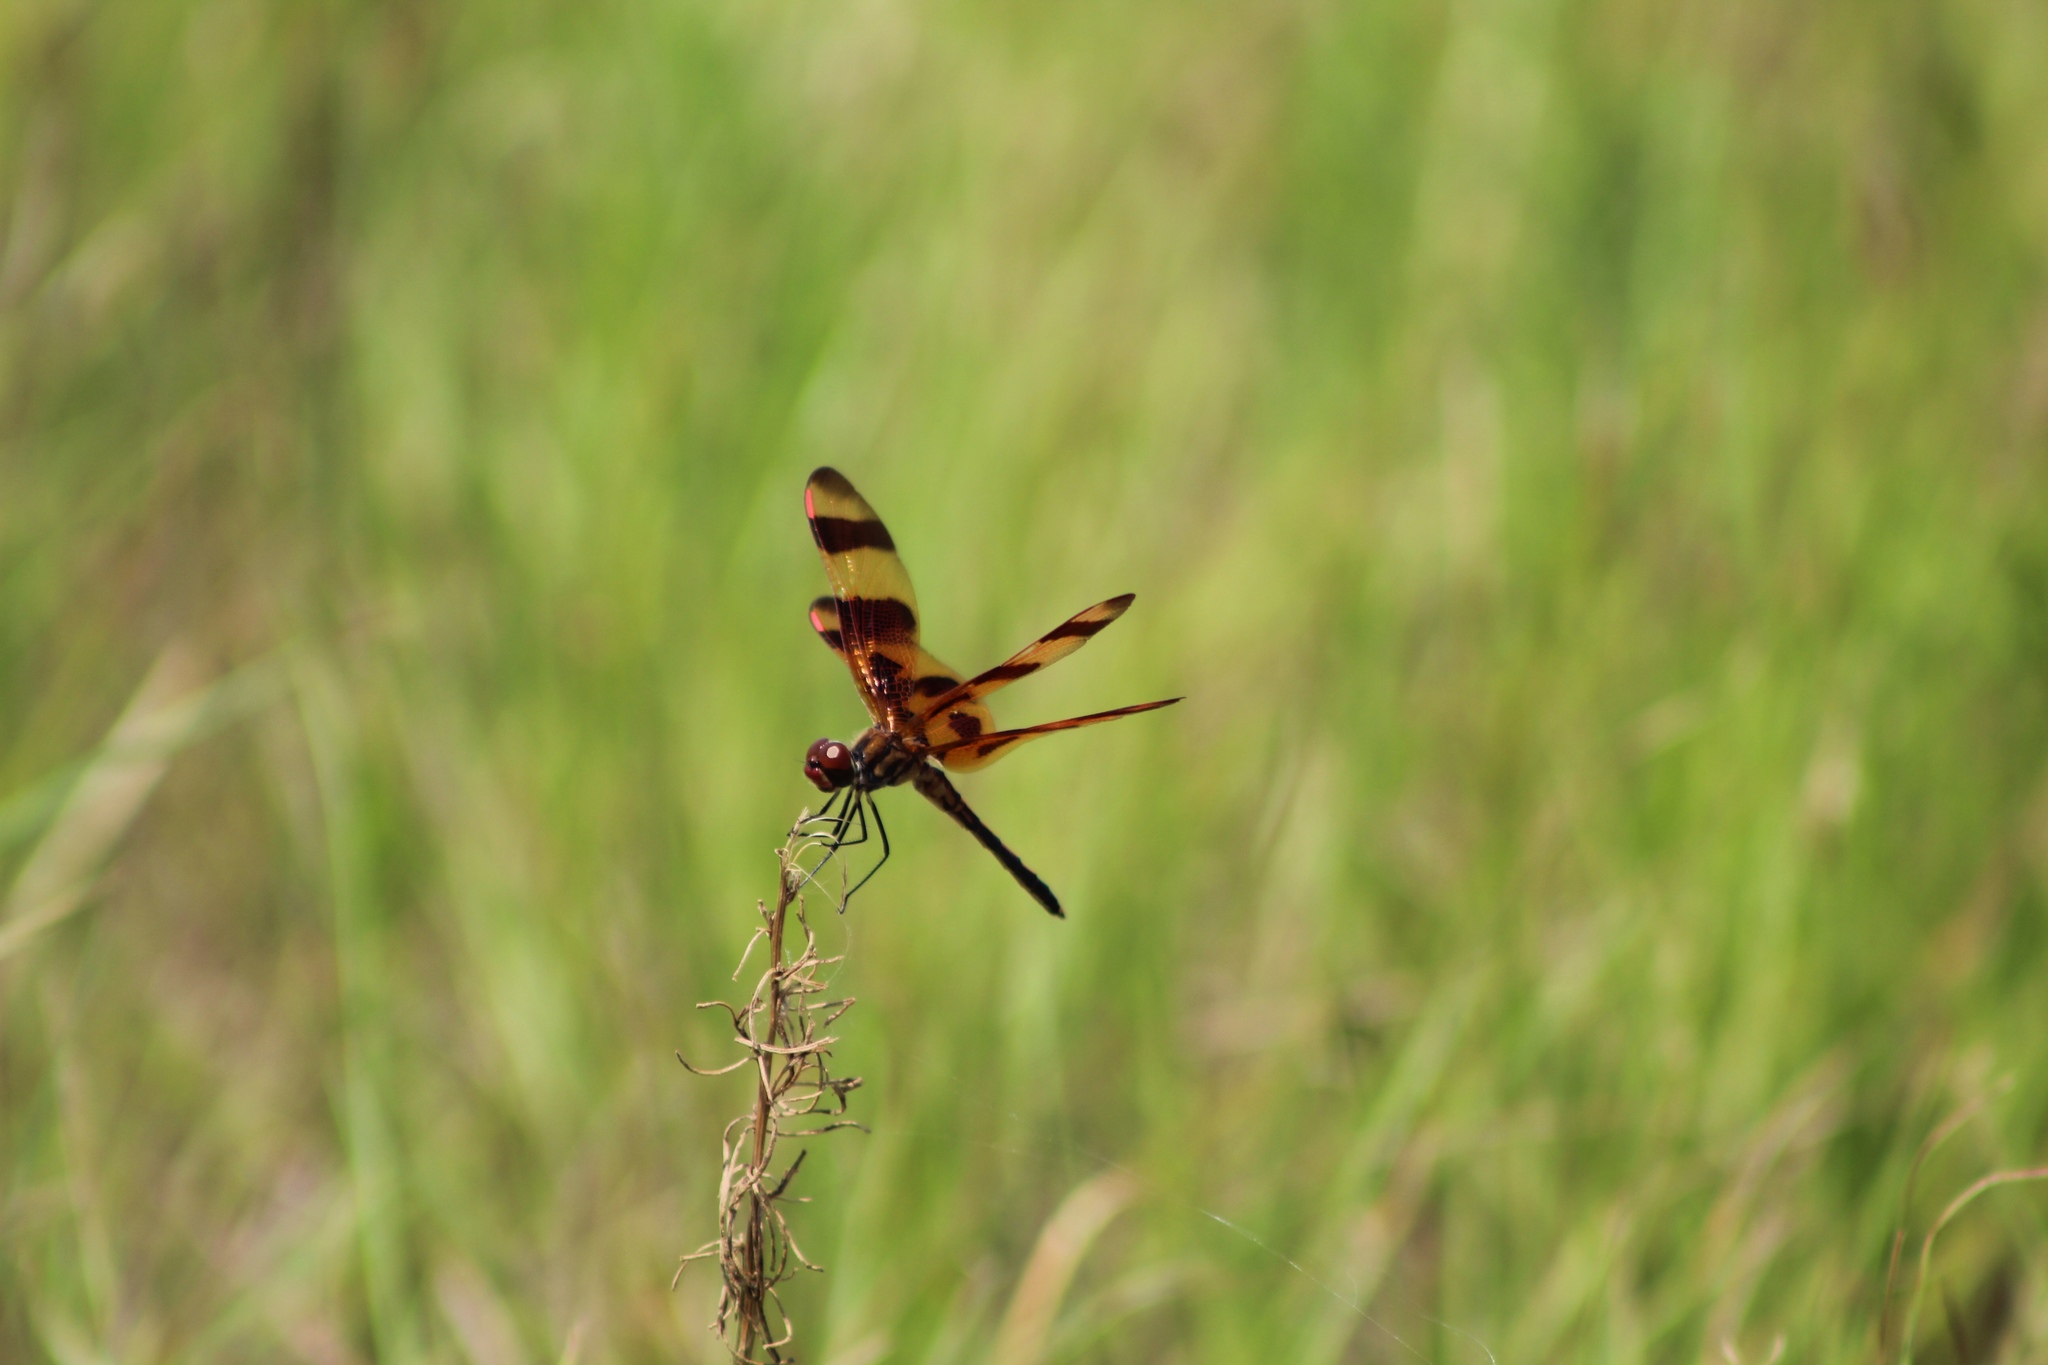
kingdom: Animalia
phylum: Arthropoda
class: Insecta
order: Odonata
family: Libellulidae
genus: Celithemis
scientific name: Celithemis eponina
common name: Halloween pennant
